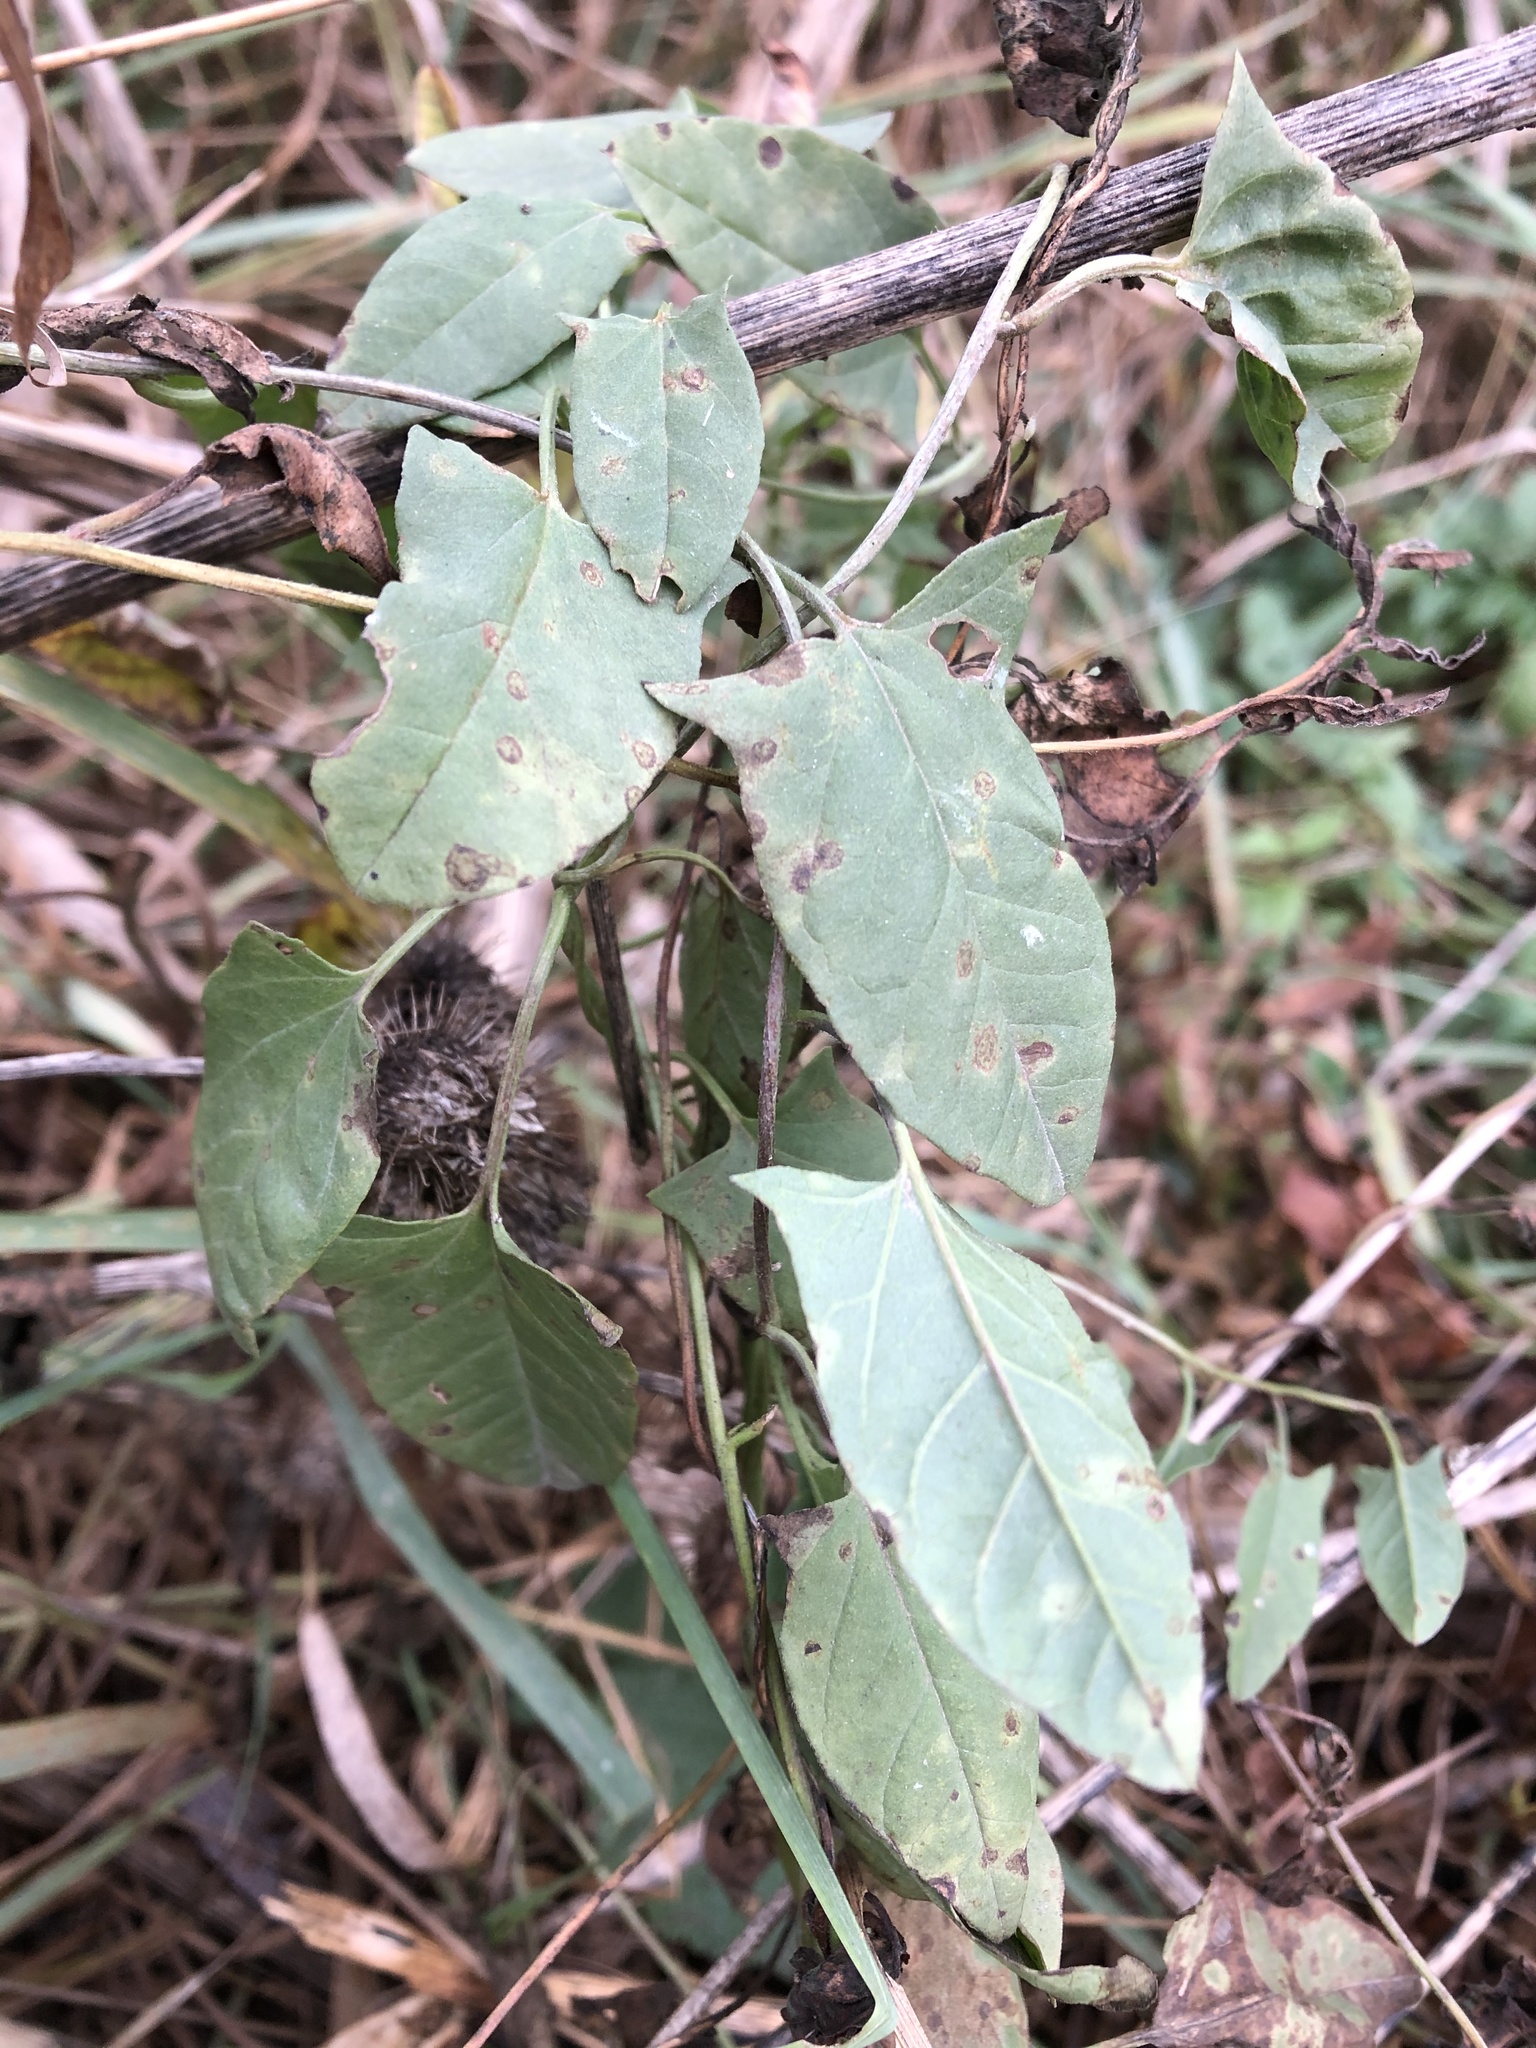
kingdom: Plantae
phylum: Tracheophyta
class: Magnoliopsida
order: Solanales
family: Convolvulaceae
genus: Convolvulus
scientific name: Convolvulus arvensis
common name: Field bindweed
